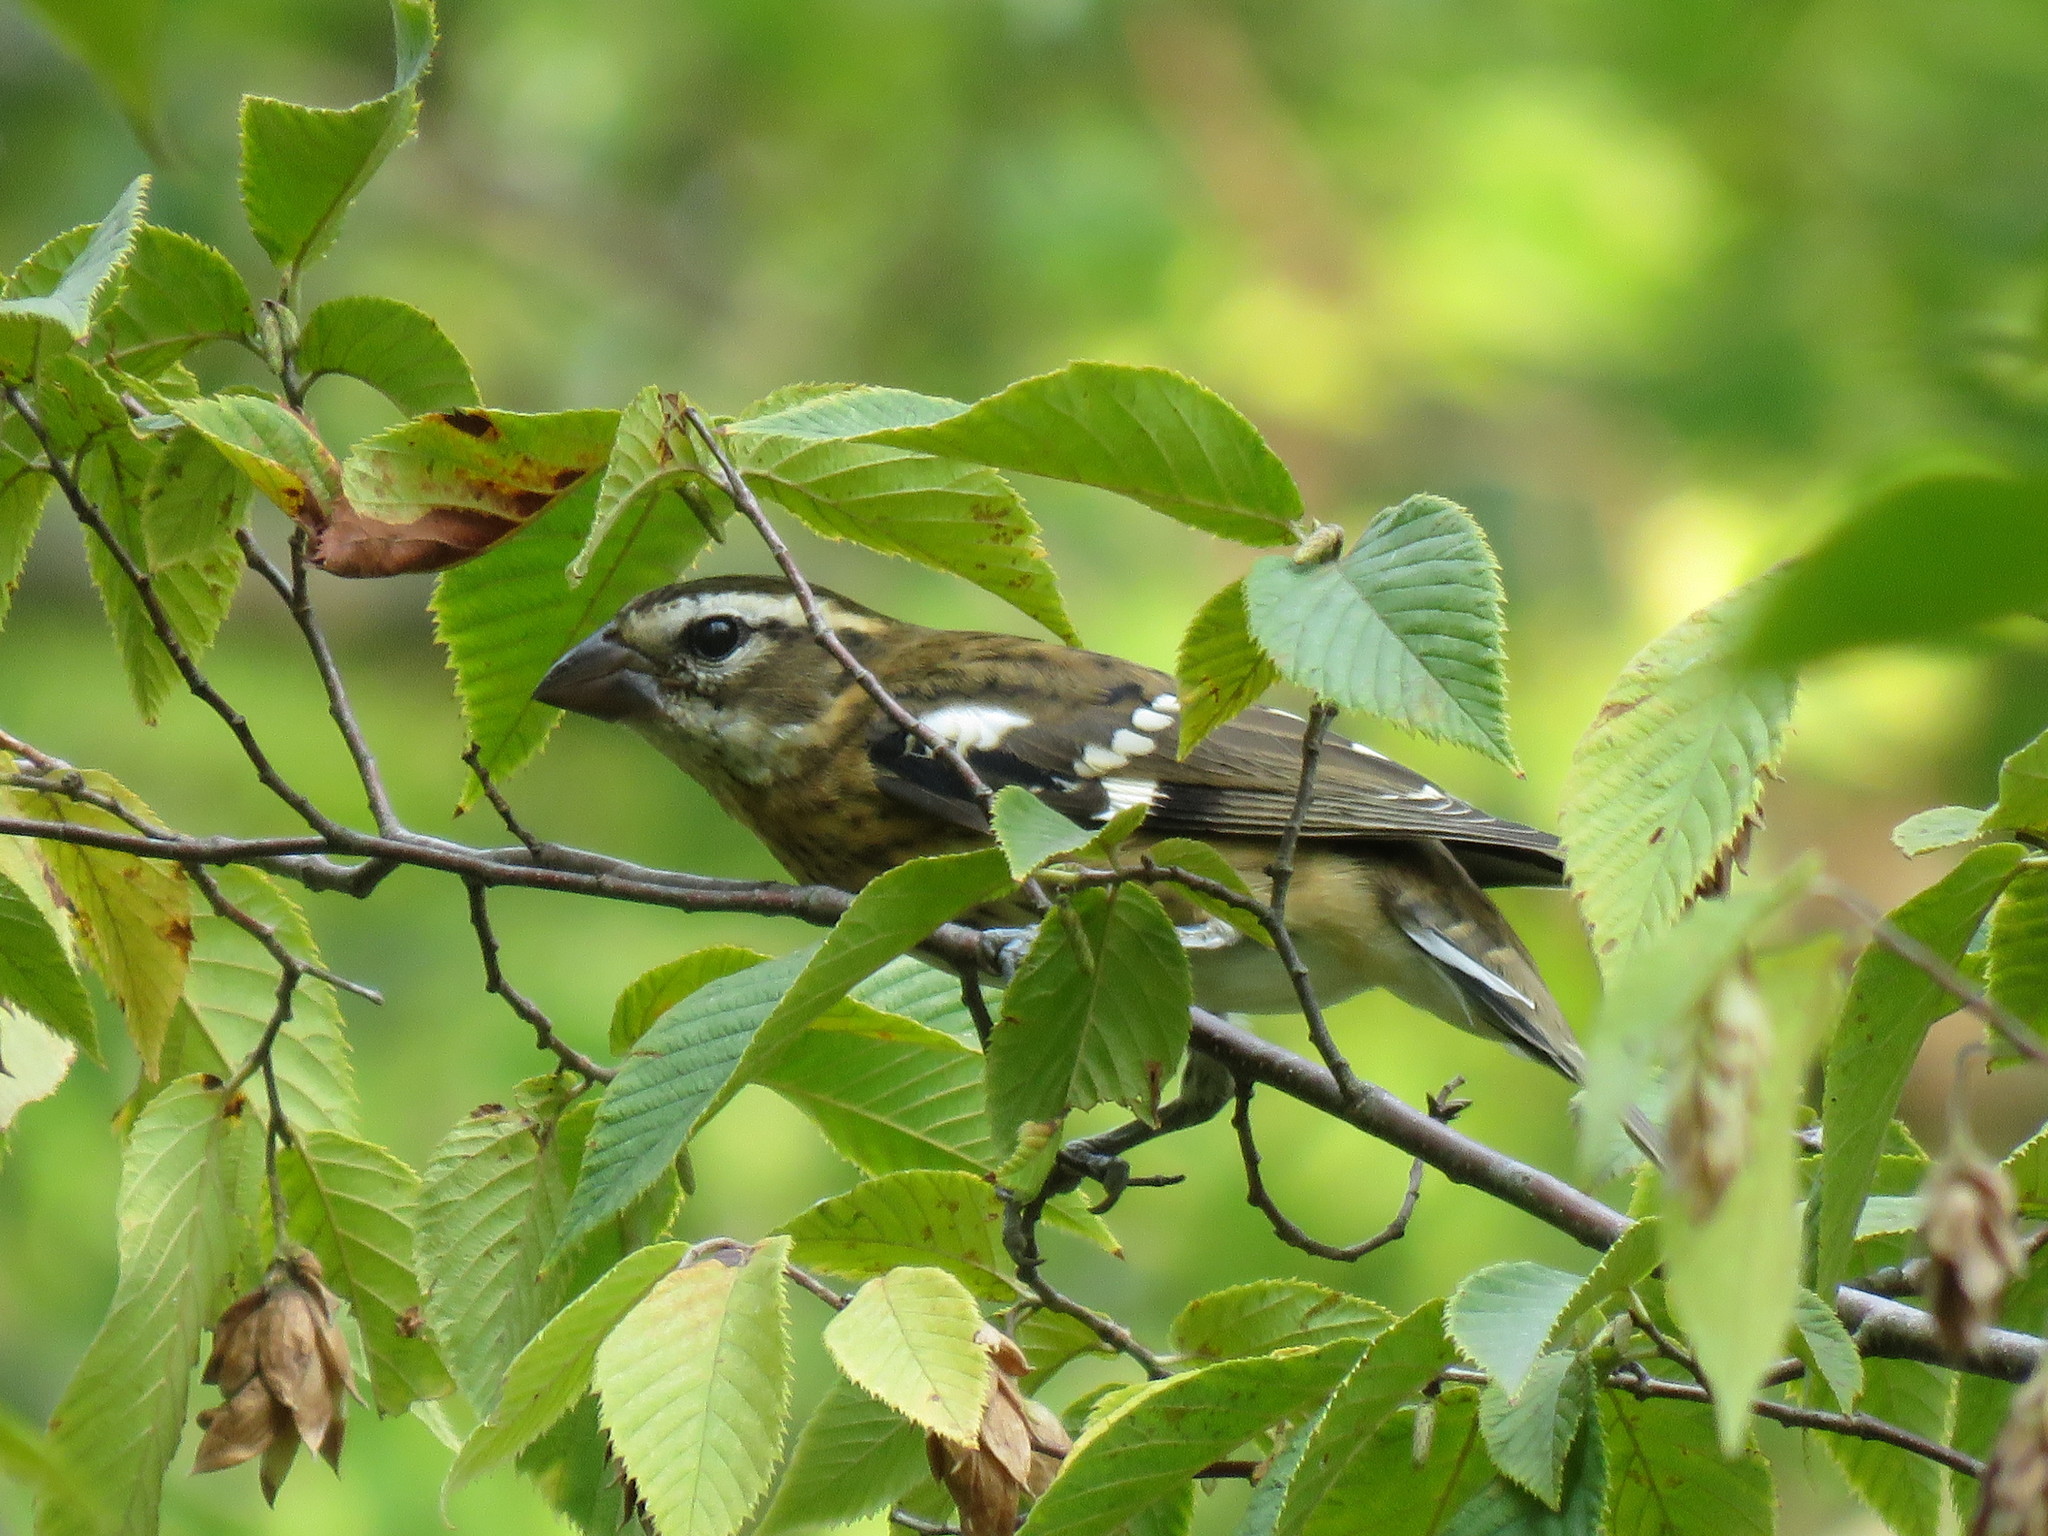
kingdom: Animalia
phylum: Chordata
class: Aves
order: Passeriformes
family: Cardinalidae
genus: Pheucticus
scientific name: Pheucticus ludovicianus
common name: Rose-breasted grosbeak
